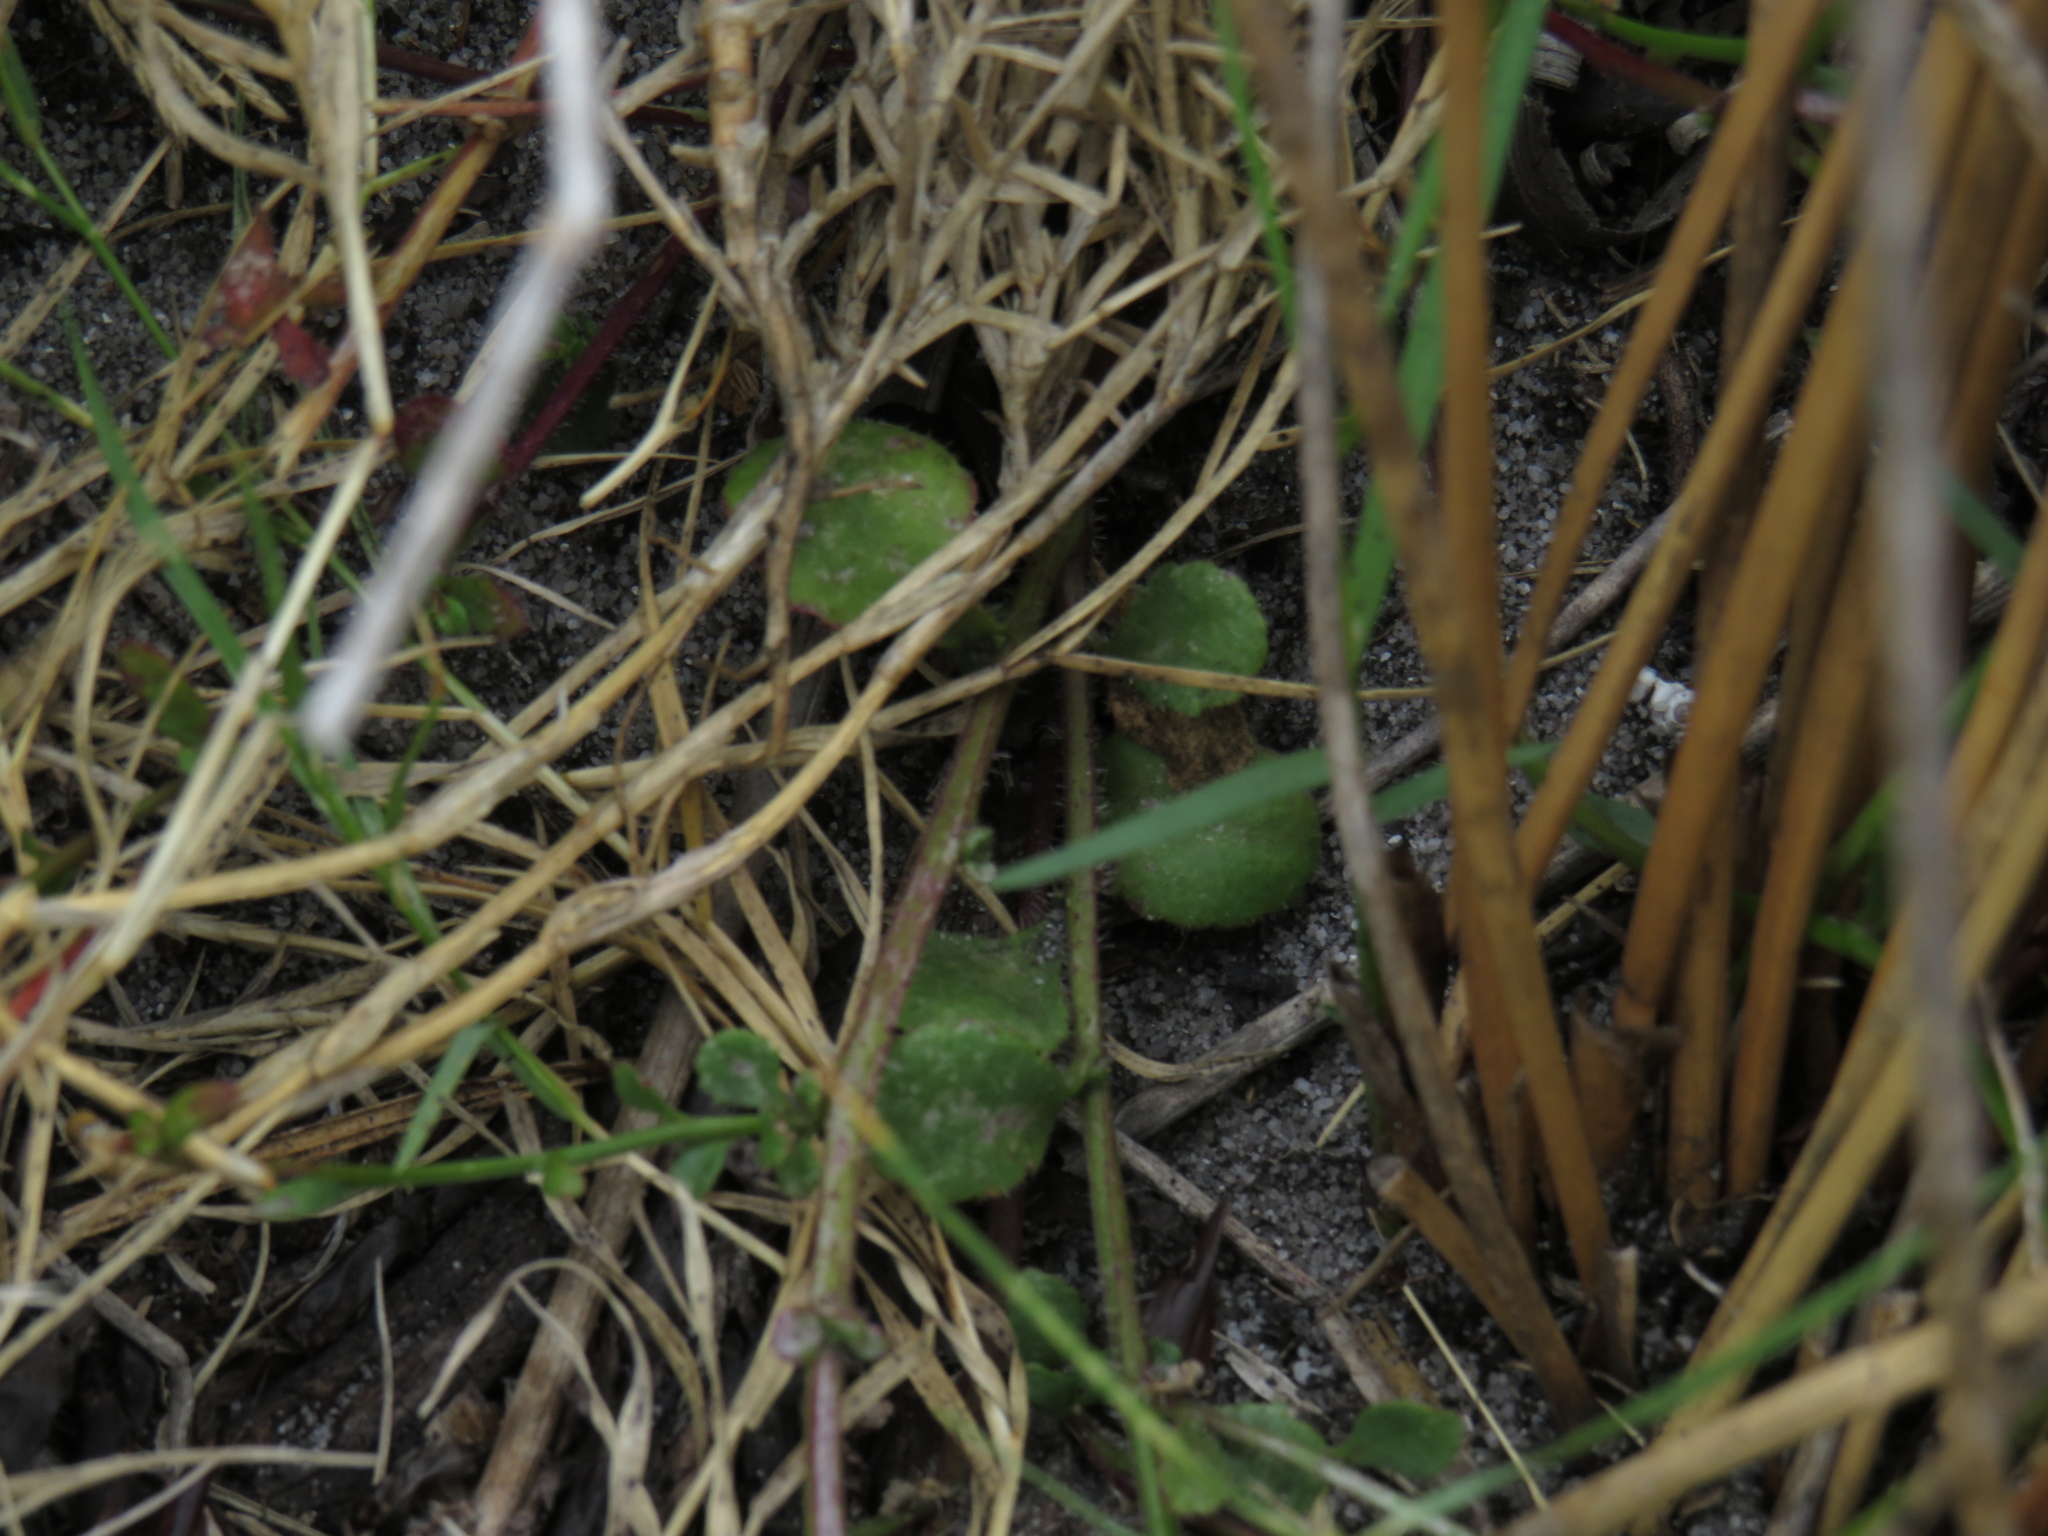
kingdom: Plantae
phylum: Tracheophyta
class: Magnoliopsida
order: Asterales
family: Campanulaceae
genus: Lobelia
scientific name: Lobelia erinus
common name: Edging lobelia
